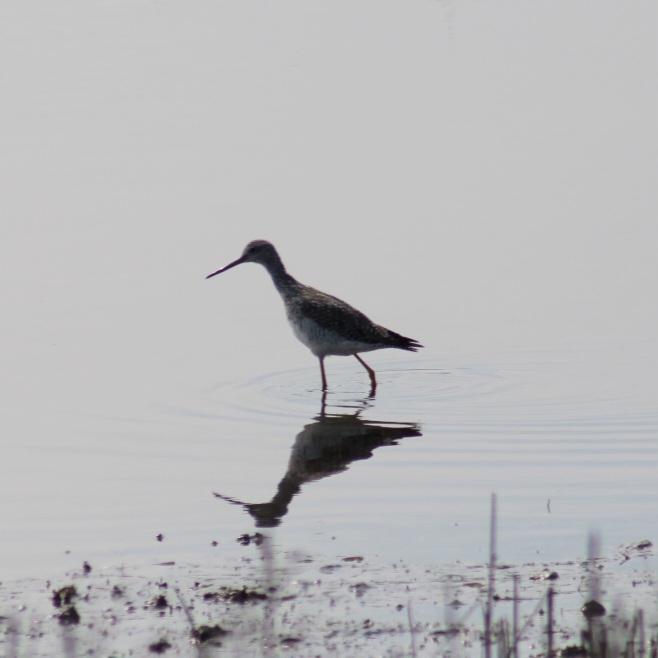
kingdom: Animalia
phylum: Chordata
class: Aves
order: Charadriiformes
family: Scolopacidae
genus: Tringa
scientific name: Tringa melanoleuca
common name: Greater yellowlegs
